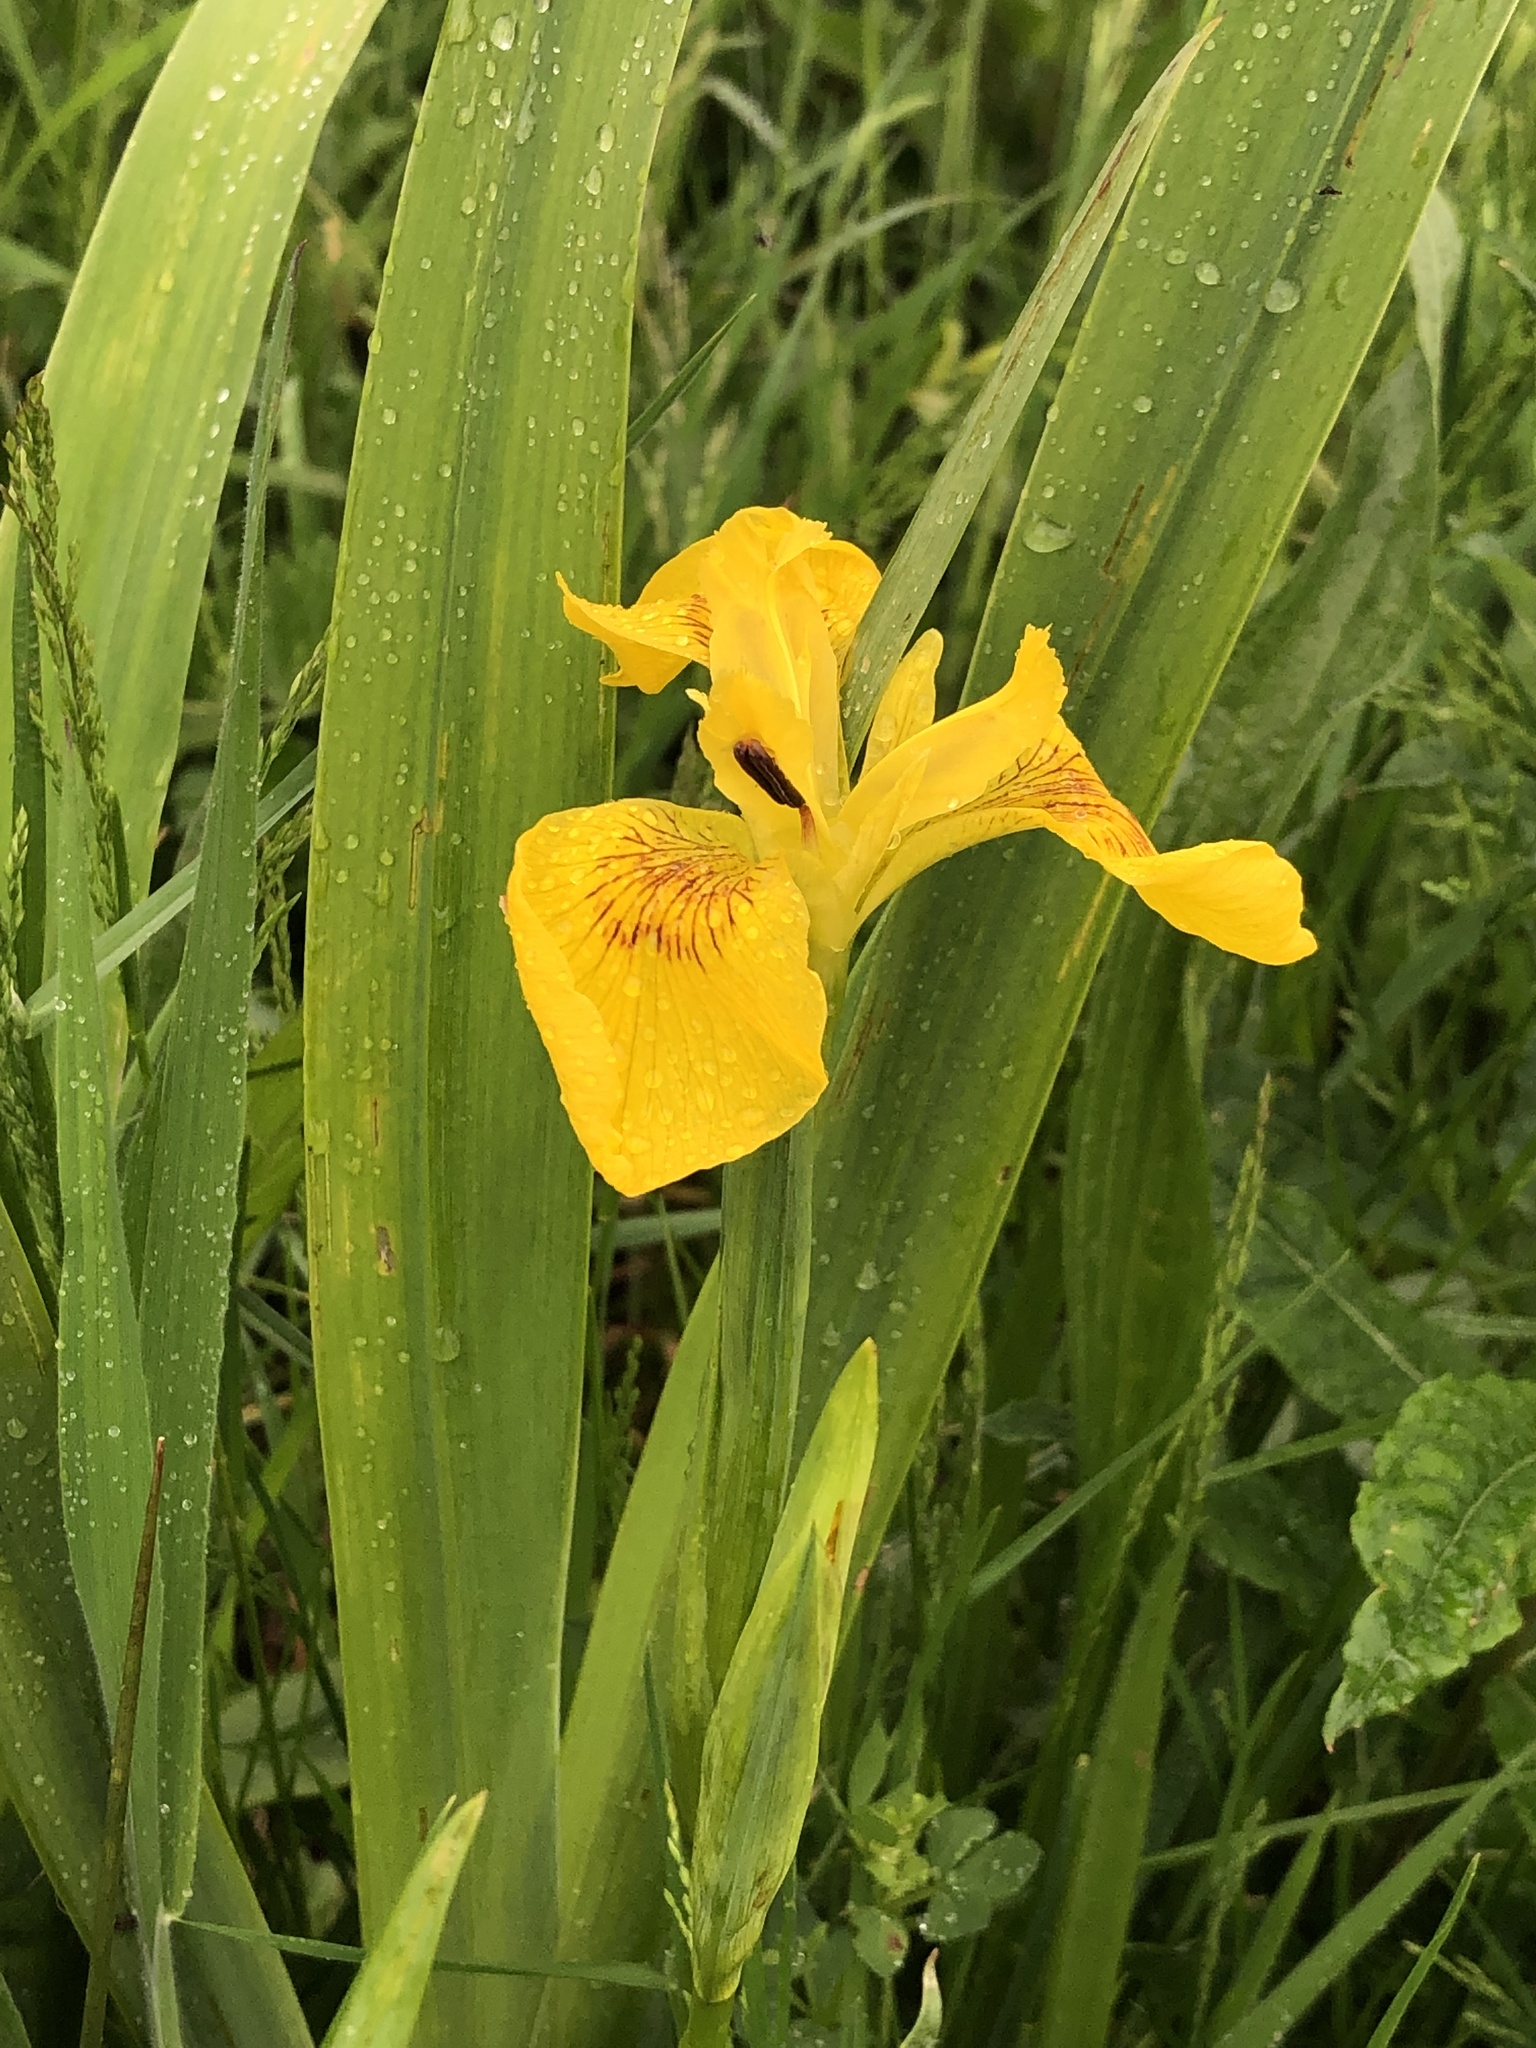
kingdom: Plantae
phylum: Tracheophyta
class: Liliopsida
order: Asparagales
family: Iridaceae
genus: Iris
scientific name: Iris pseudacorus
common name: Yellow flag
